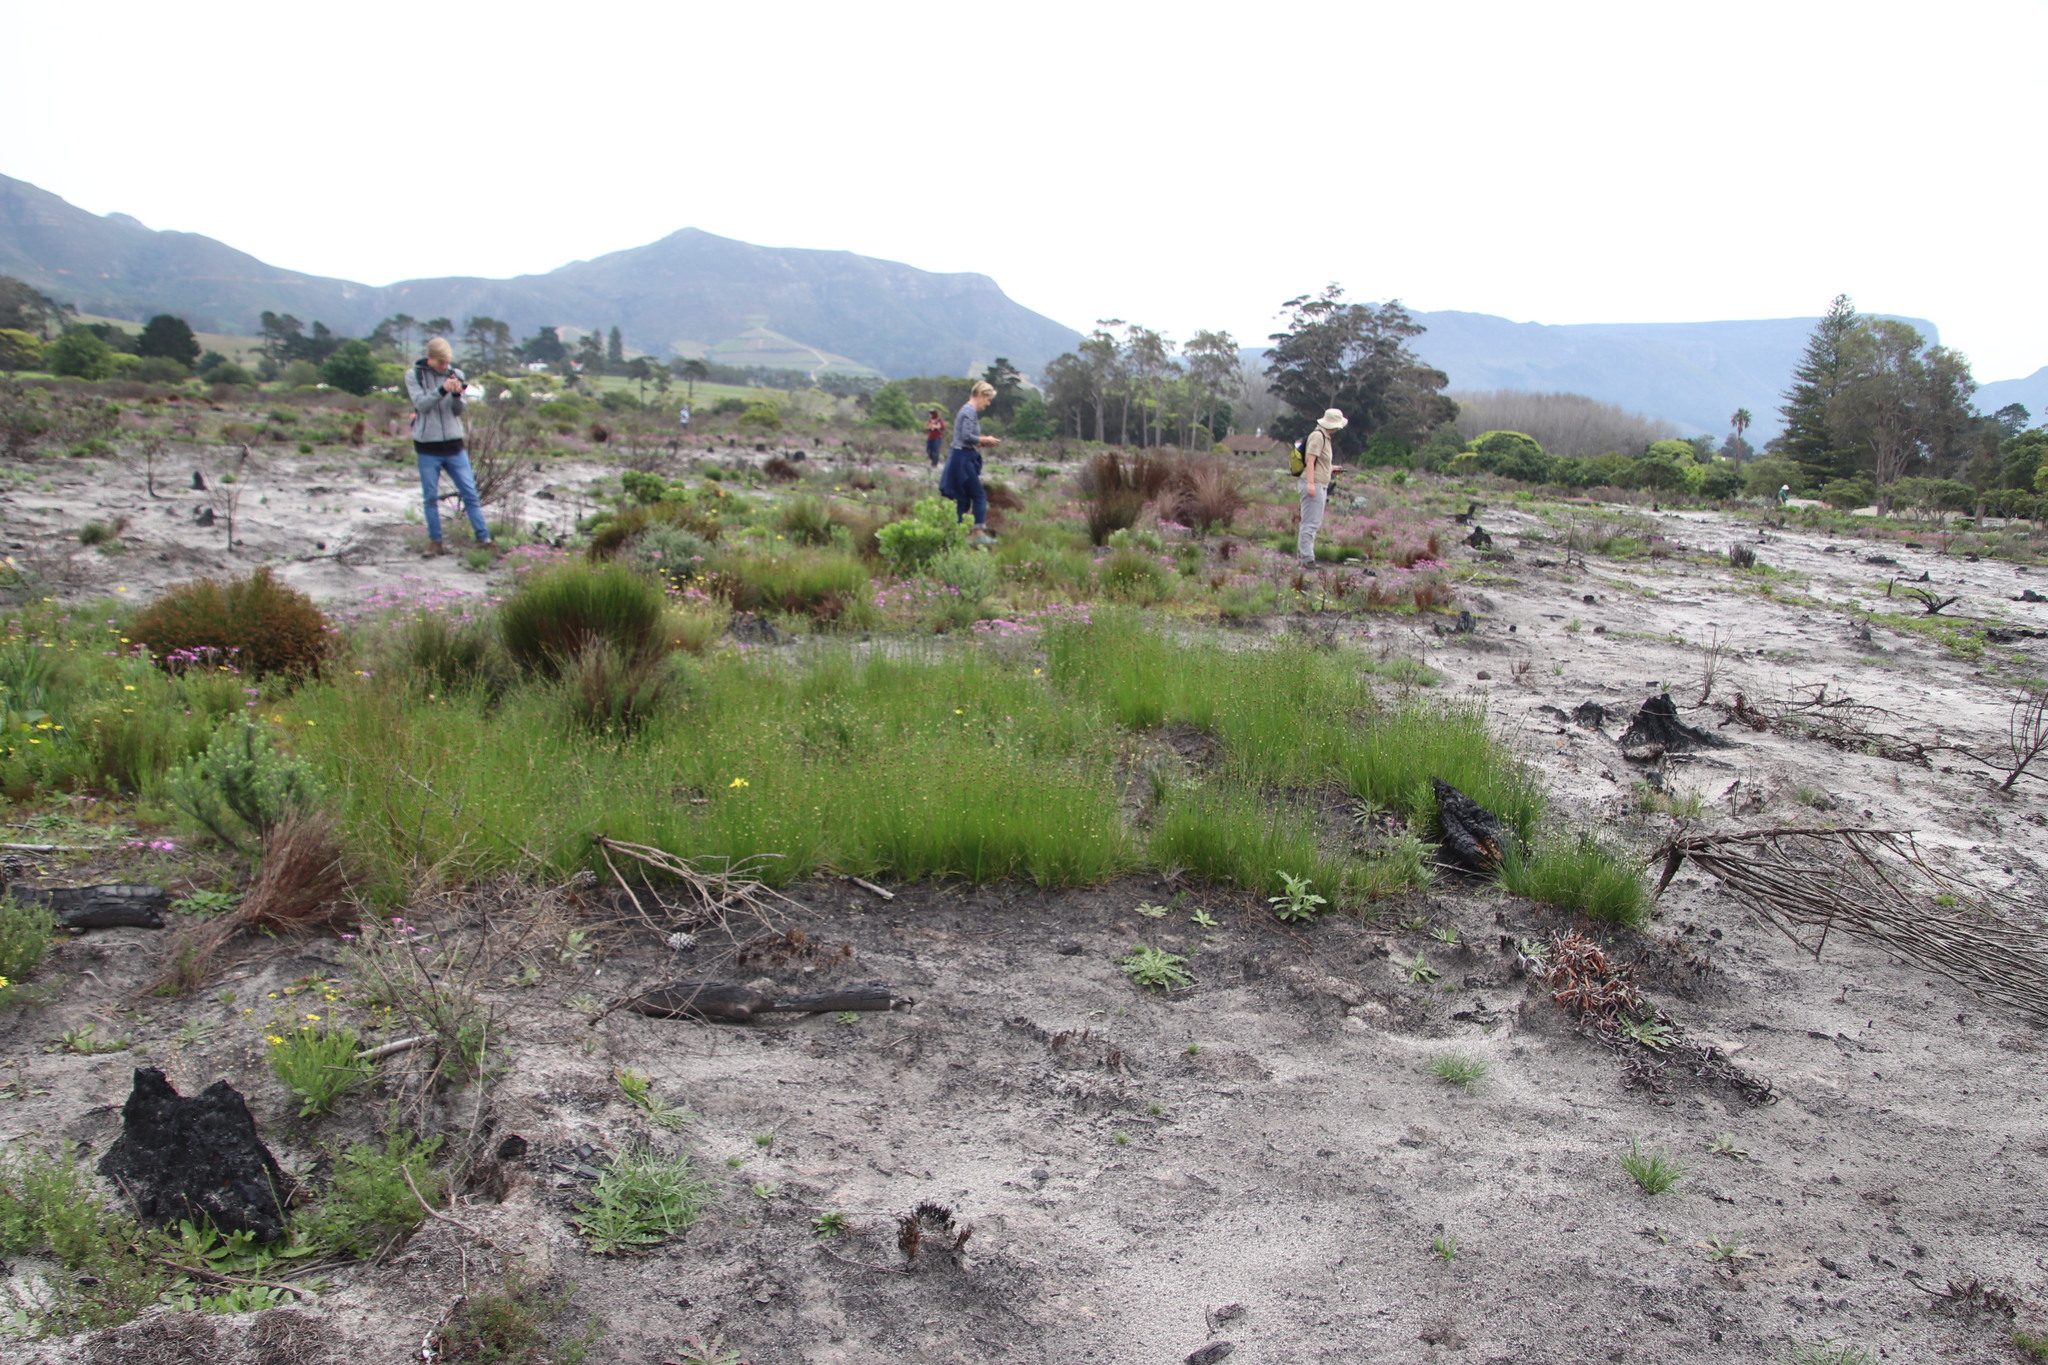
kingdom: Plantae
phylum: Tracheophyta
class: Liliopsida
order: Poales
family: Cyperaceae
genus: Ficinia
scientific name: Ficinia indica
